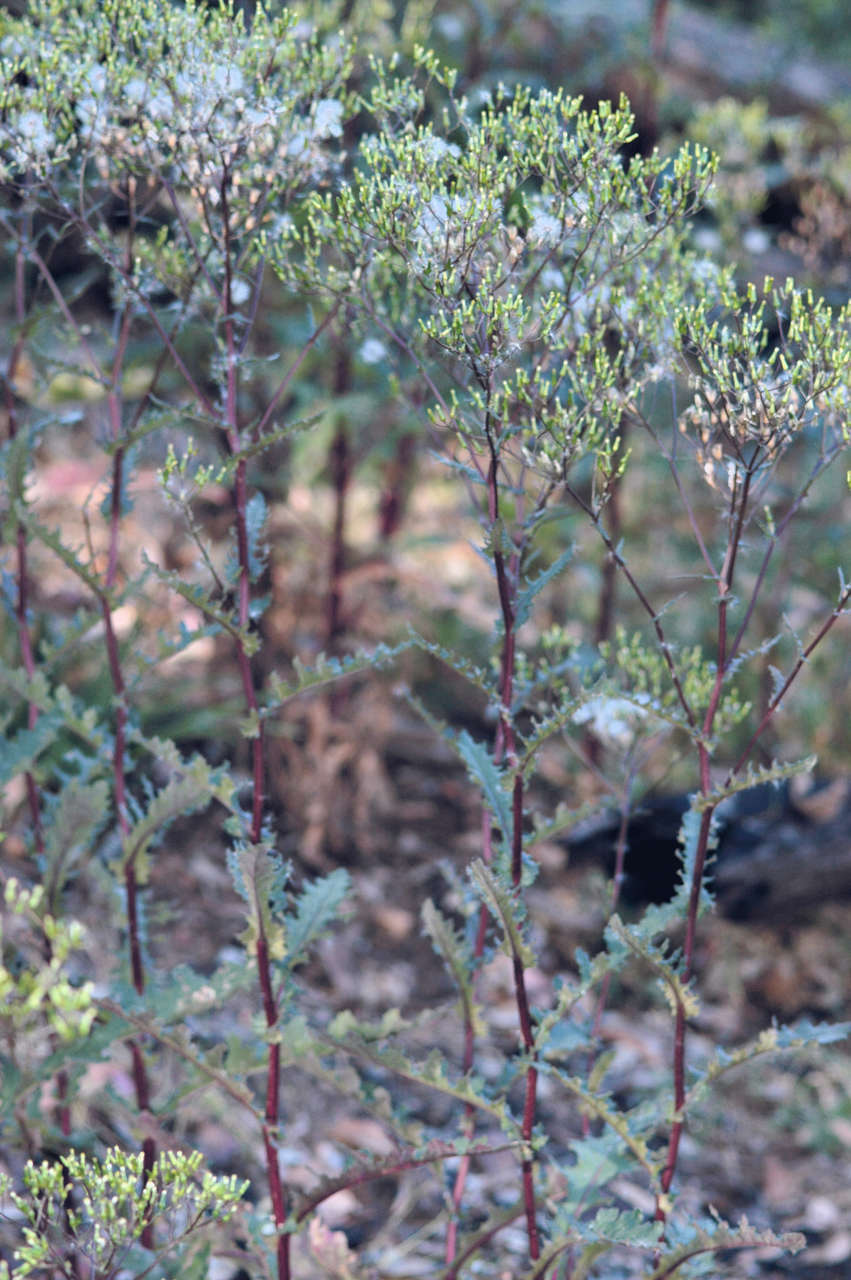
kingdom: Plantae
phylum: Tracheophyta
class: Magnoliopsida
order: Asterales
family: Asteraceae
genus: Senecio
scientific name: Senecio picridioides
